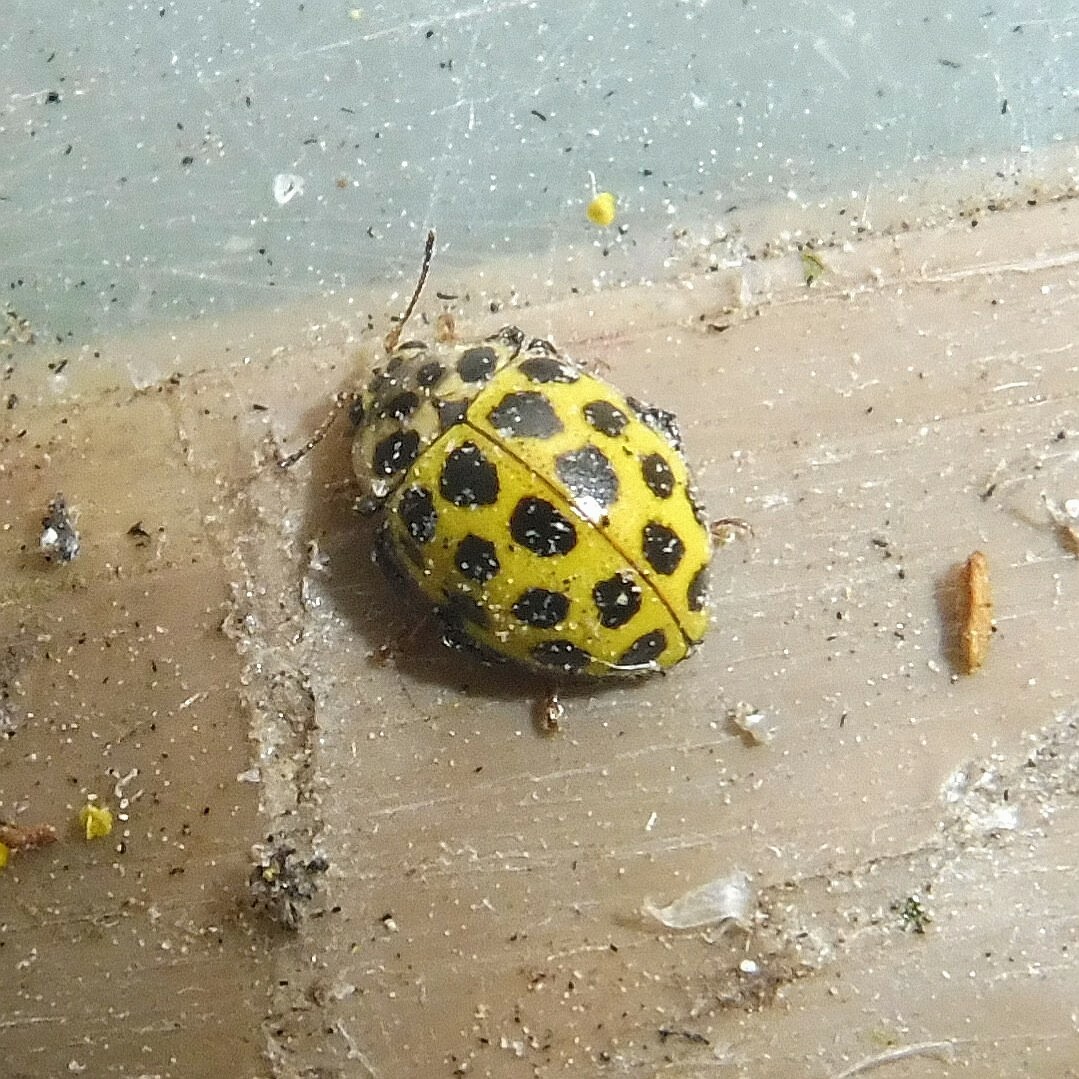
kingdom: Animalia
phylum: Arthropoda
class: Insecta
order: Coleoptera
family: Coccinellidae
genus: Psyllobora
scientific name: Psyllobora vigintiduopunctata
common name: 22-spot ladybird
